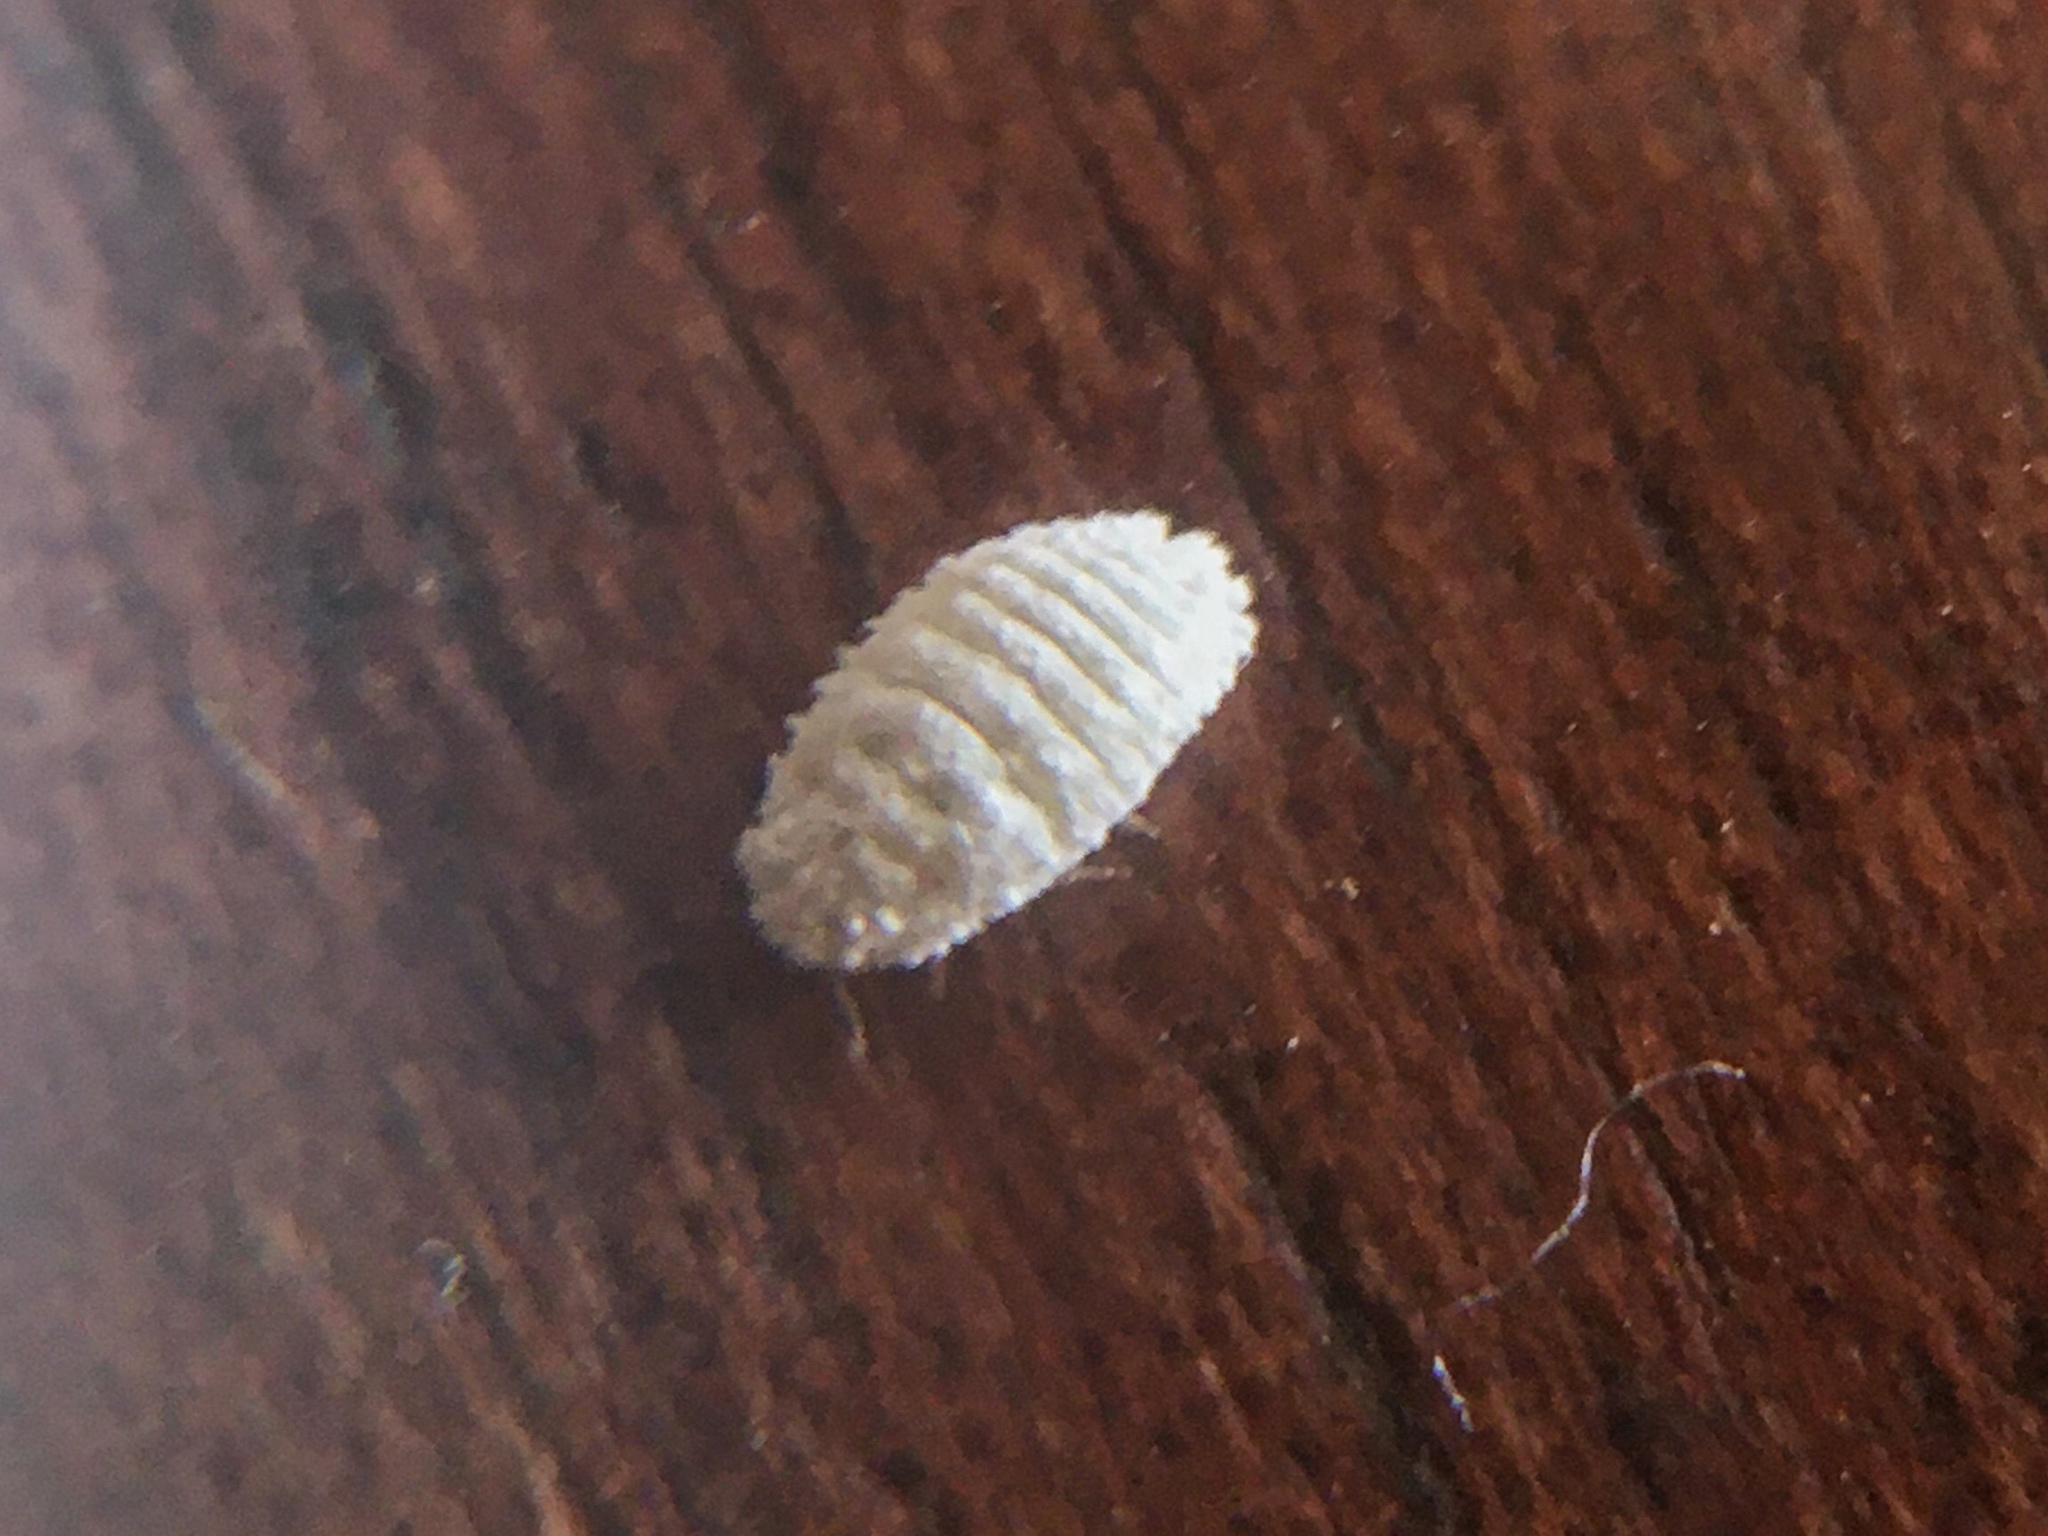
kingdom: Animalia
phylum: Arthropoda
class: Insecta
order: Hemiptera
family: Pseudococcidae
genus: Planococcus
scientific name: Planococcus citri
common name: Citrus mealybug
